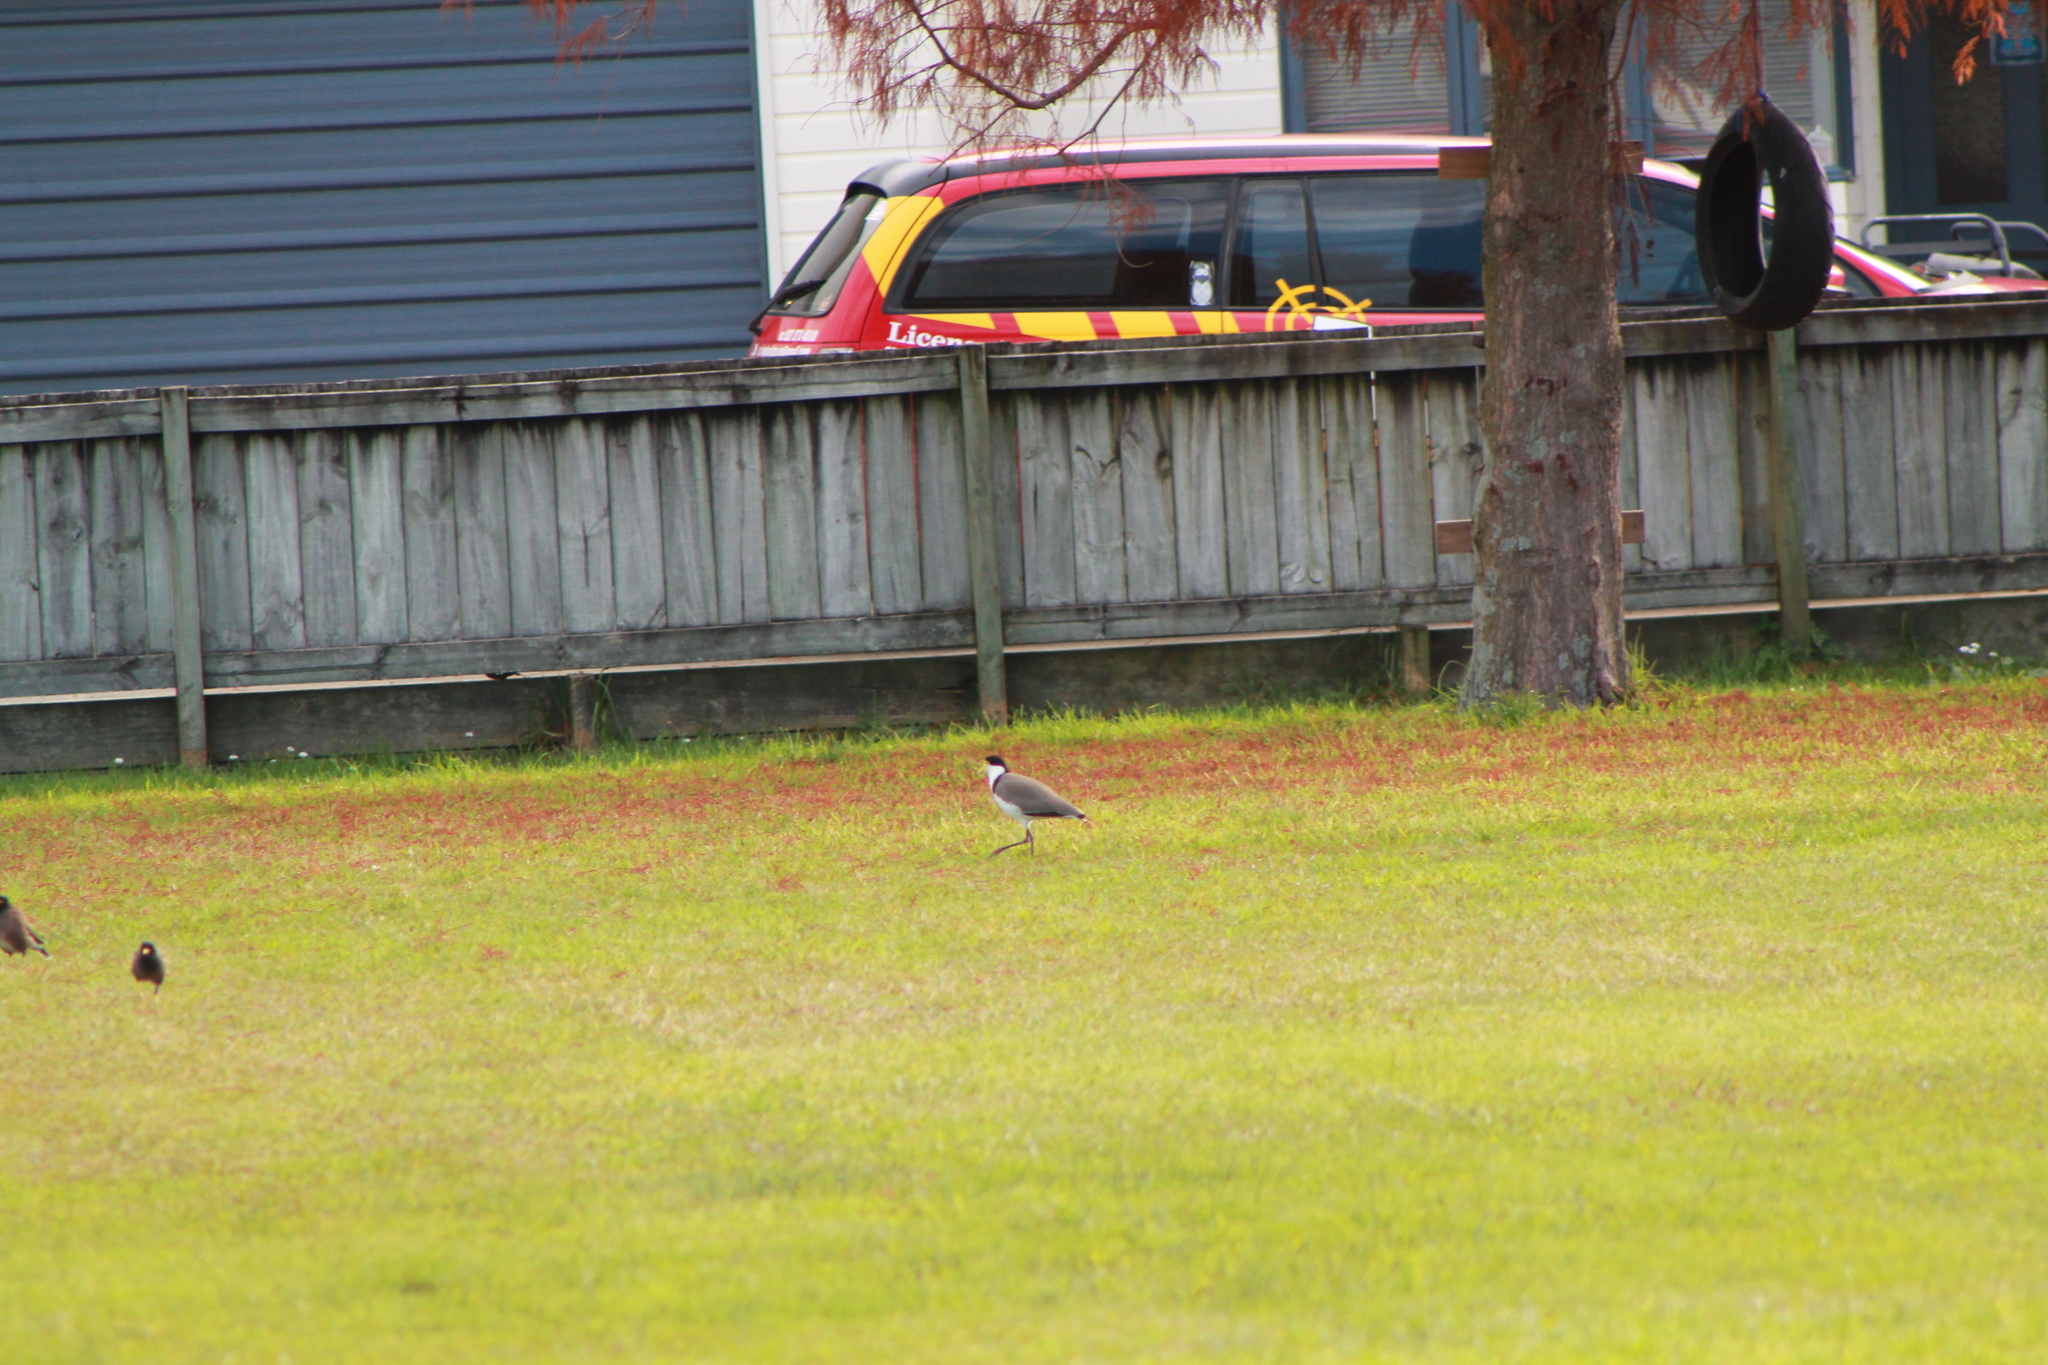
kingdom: Animalia
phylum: Chordata
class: Aves
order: Charadriiformes
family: Charadriidae
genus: Vanellus
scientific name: Vanellus miles
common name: Masked lapwing
